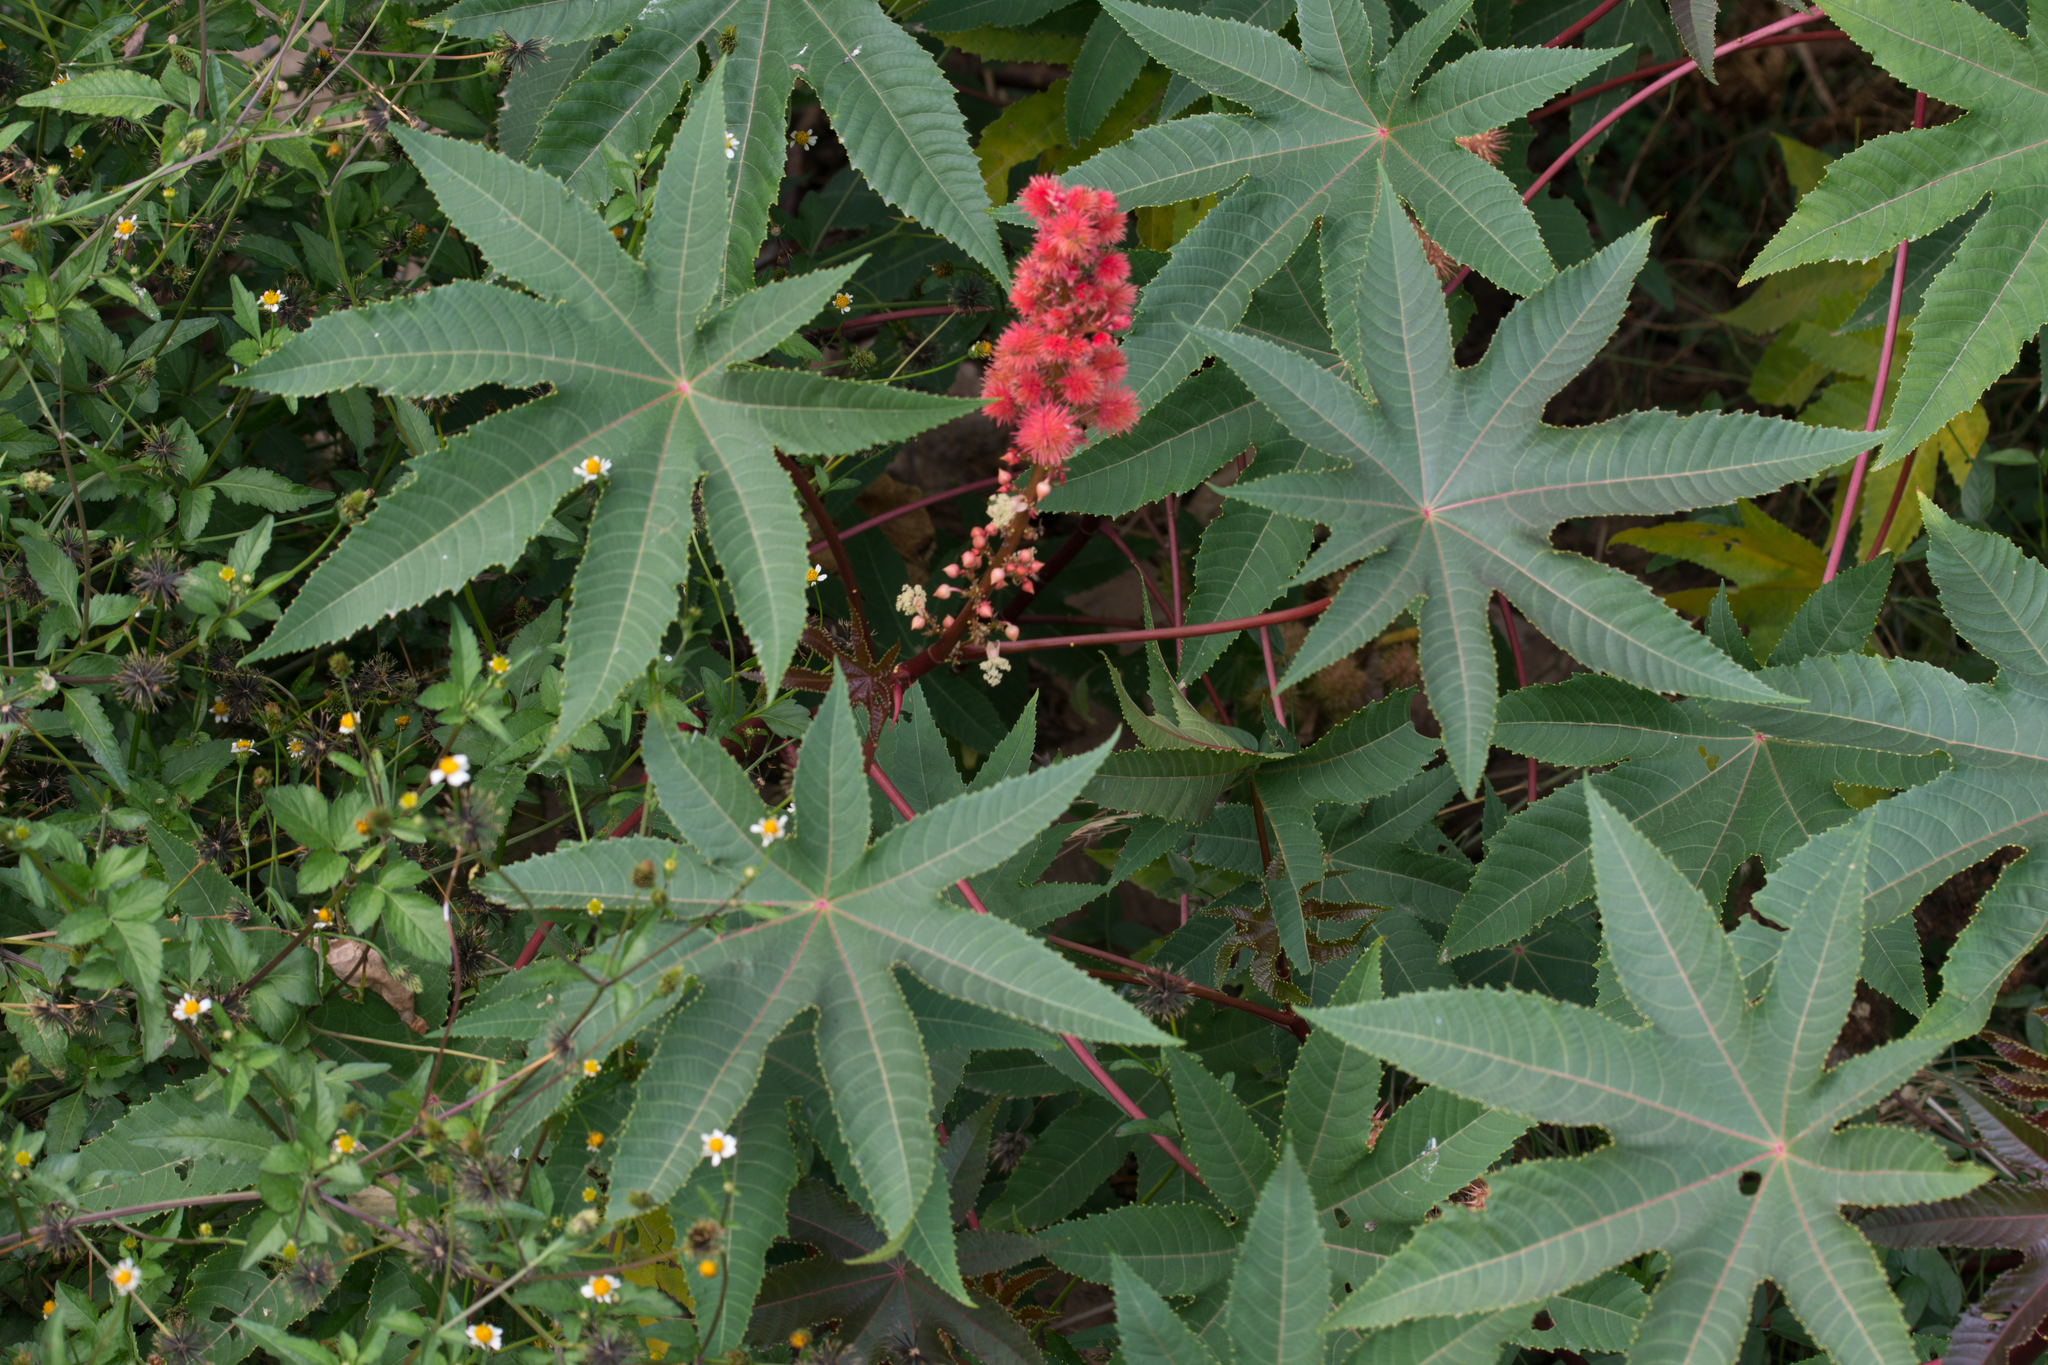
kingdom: Plantae
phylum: Tracheophyta
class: Magnoliopsida
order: Malpighiales
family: Euphorbiaceae
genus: Ricinus
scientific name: Ricinus communis
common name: Castor-oil-plant
